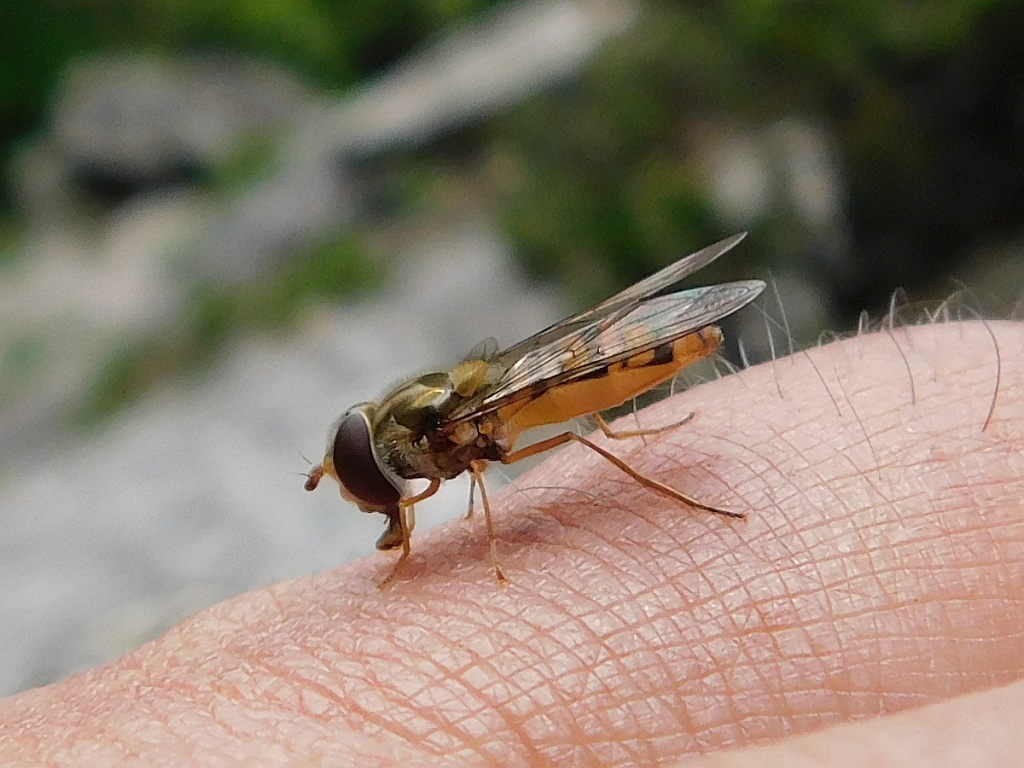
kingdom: Animalia
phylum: Arthropoda
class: Insecta
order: Diptera
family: Syrphidae
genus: Episyrphus
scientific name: Episyrphus balteatus
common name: Marmalade hoverfly
